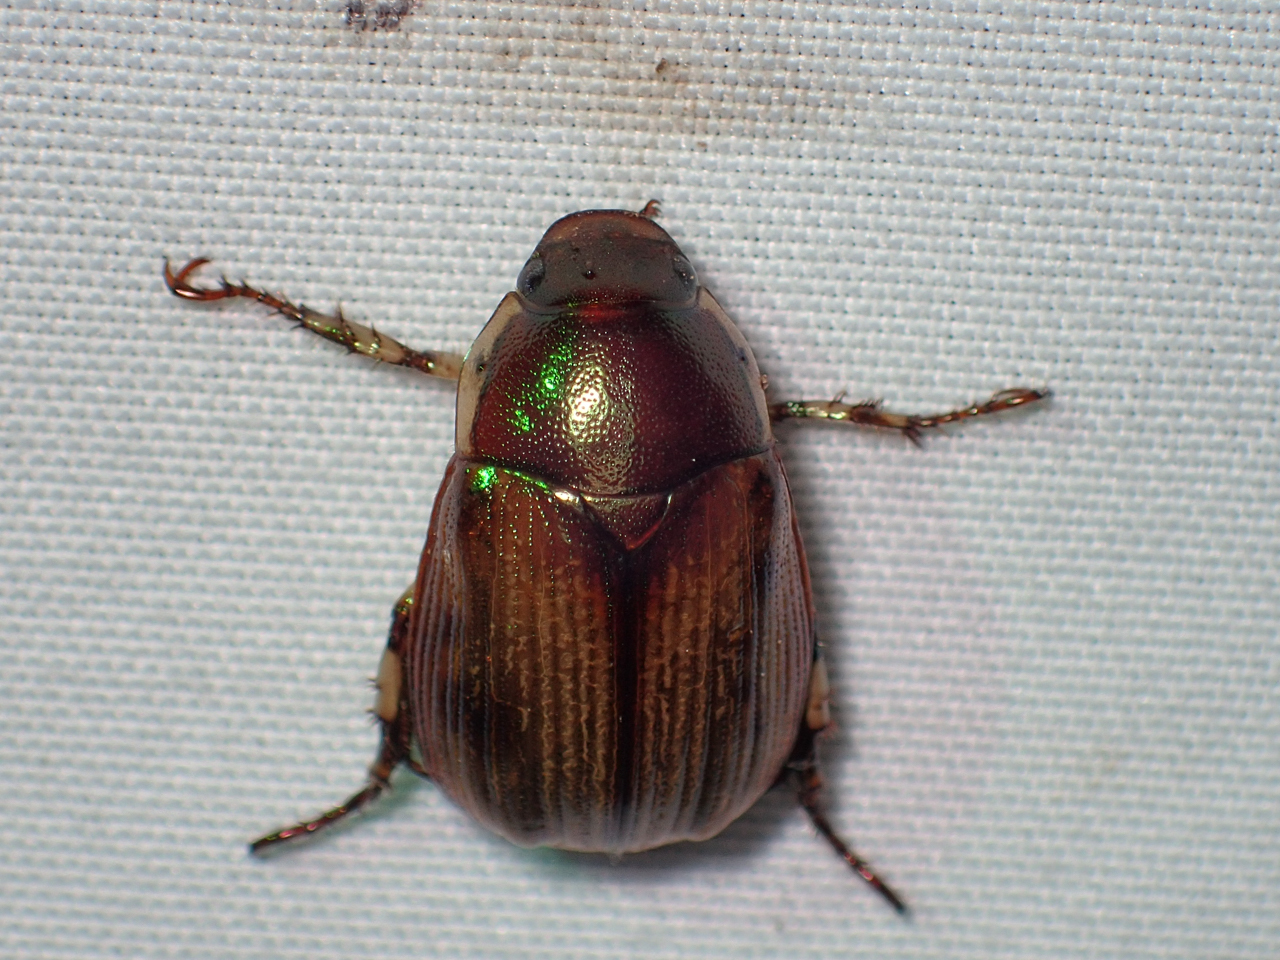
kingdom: Animalia
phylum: Arthropoda
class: Insecta
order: Coleoptera
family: Scarabaeidae
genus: Callistethus
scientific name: Callistethus marginatus
